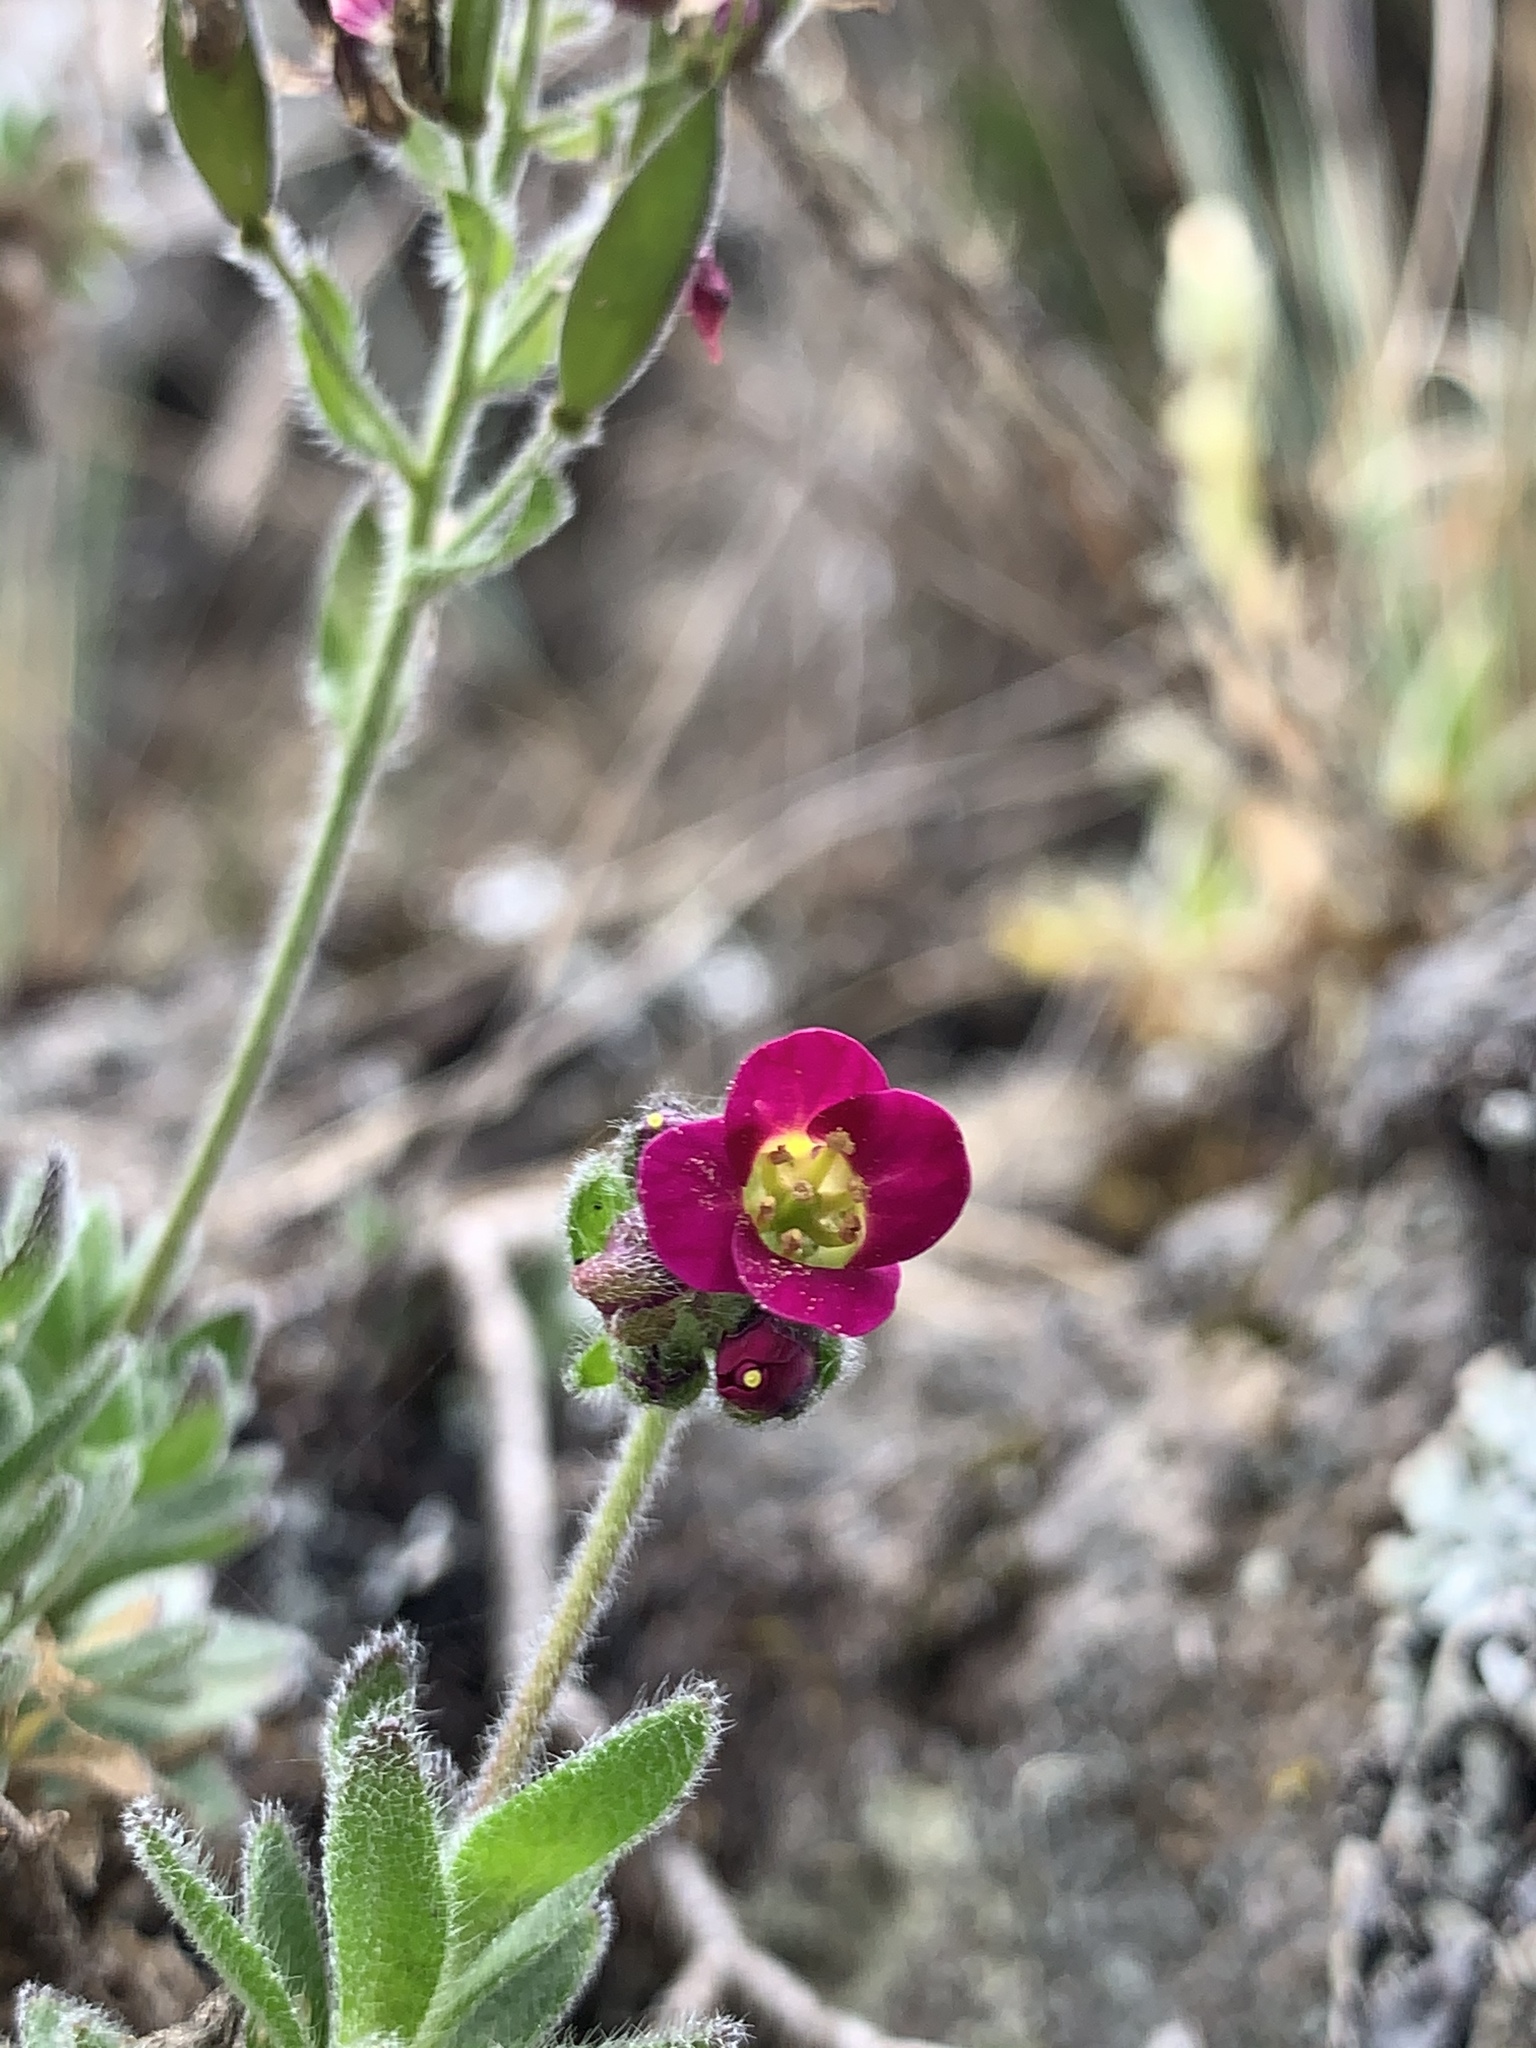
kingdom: Plantae
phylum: Tracheophyta
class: Magnoliopsida
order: Brassicales
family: Brassicaceae
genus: Draba
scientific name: Draba steyermarkii
